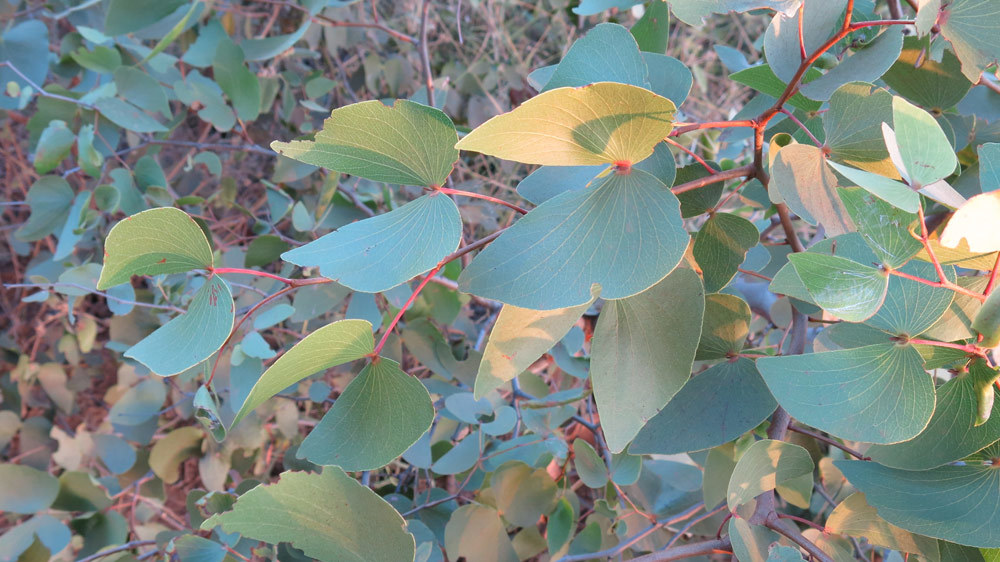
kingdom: Plantae
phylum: Tracheophyta
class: Magnoliopsida
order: Fabales
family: Fabaceae
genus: Colophospermum
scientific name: Colophospermum mopane
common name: Mopane
